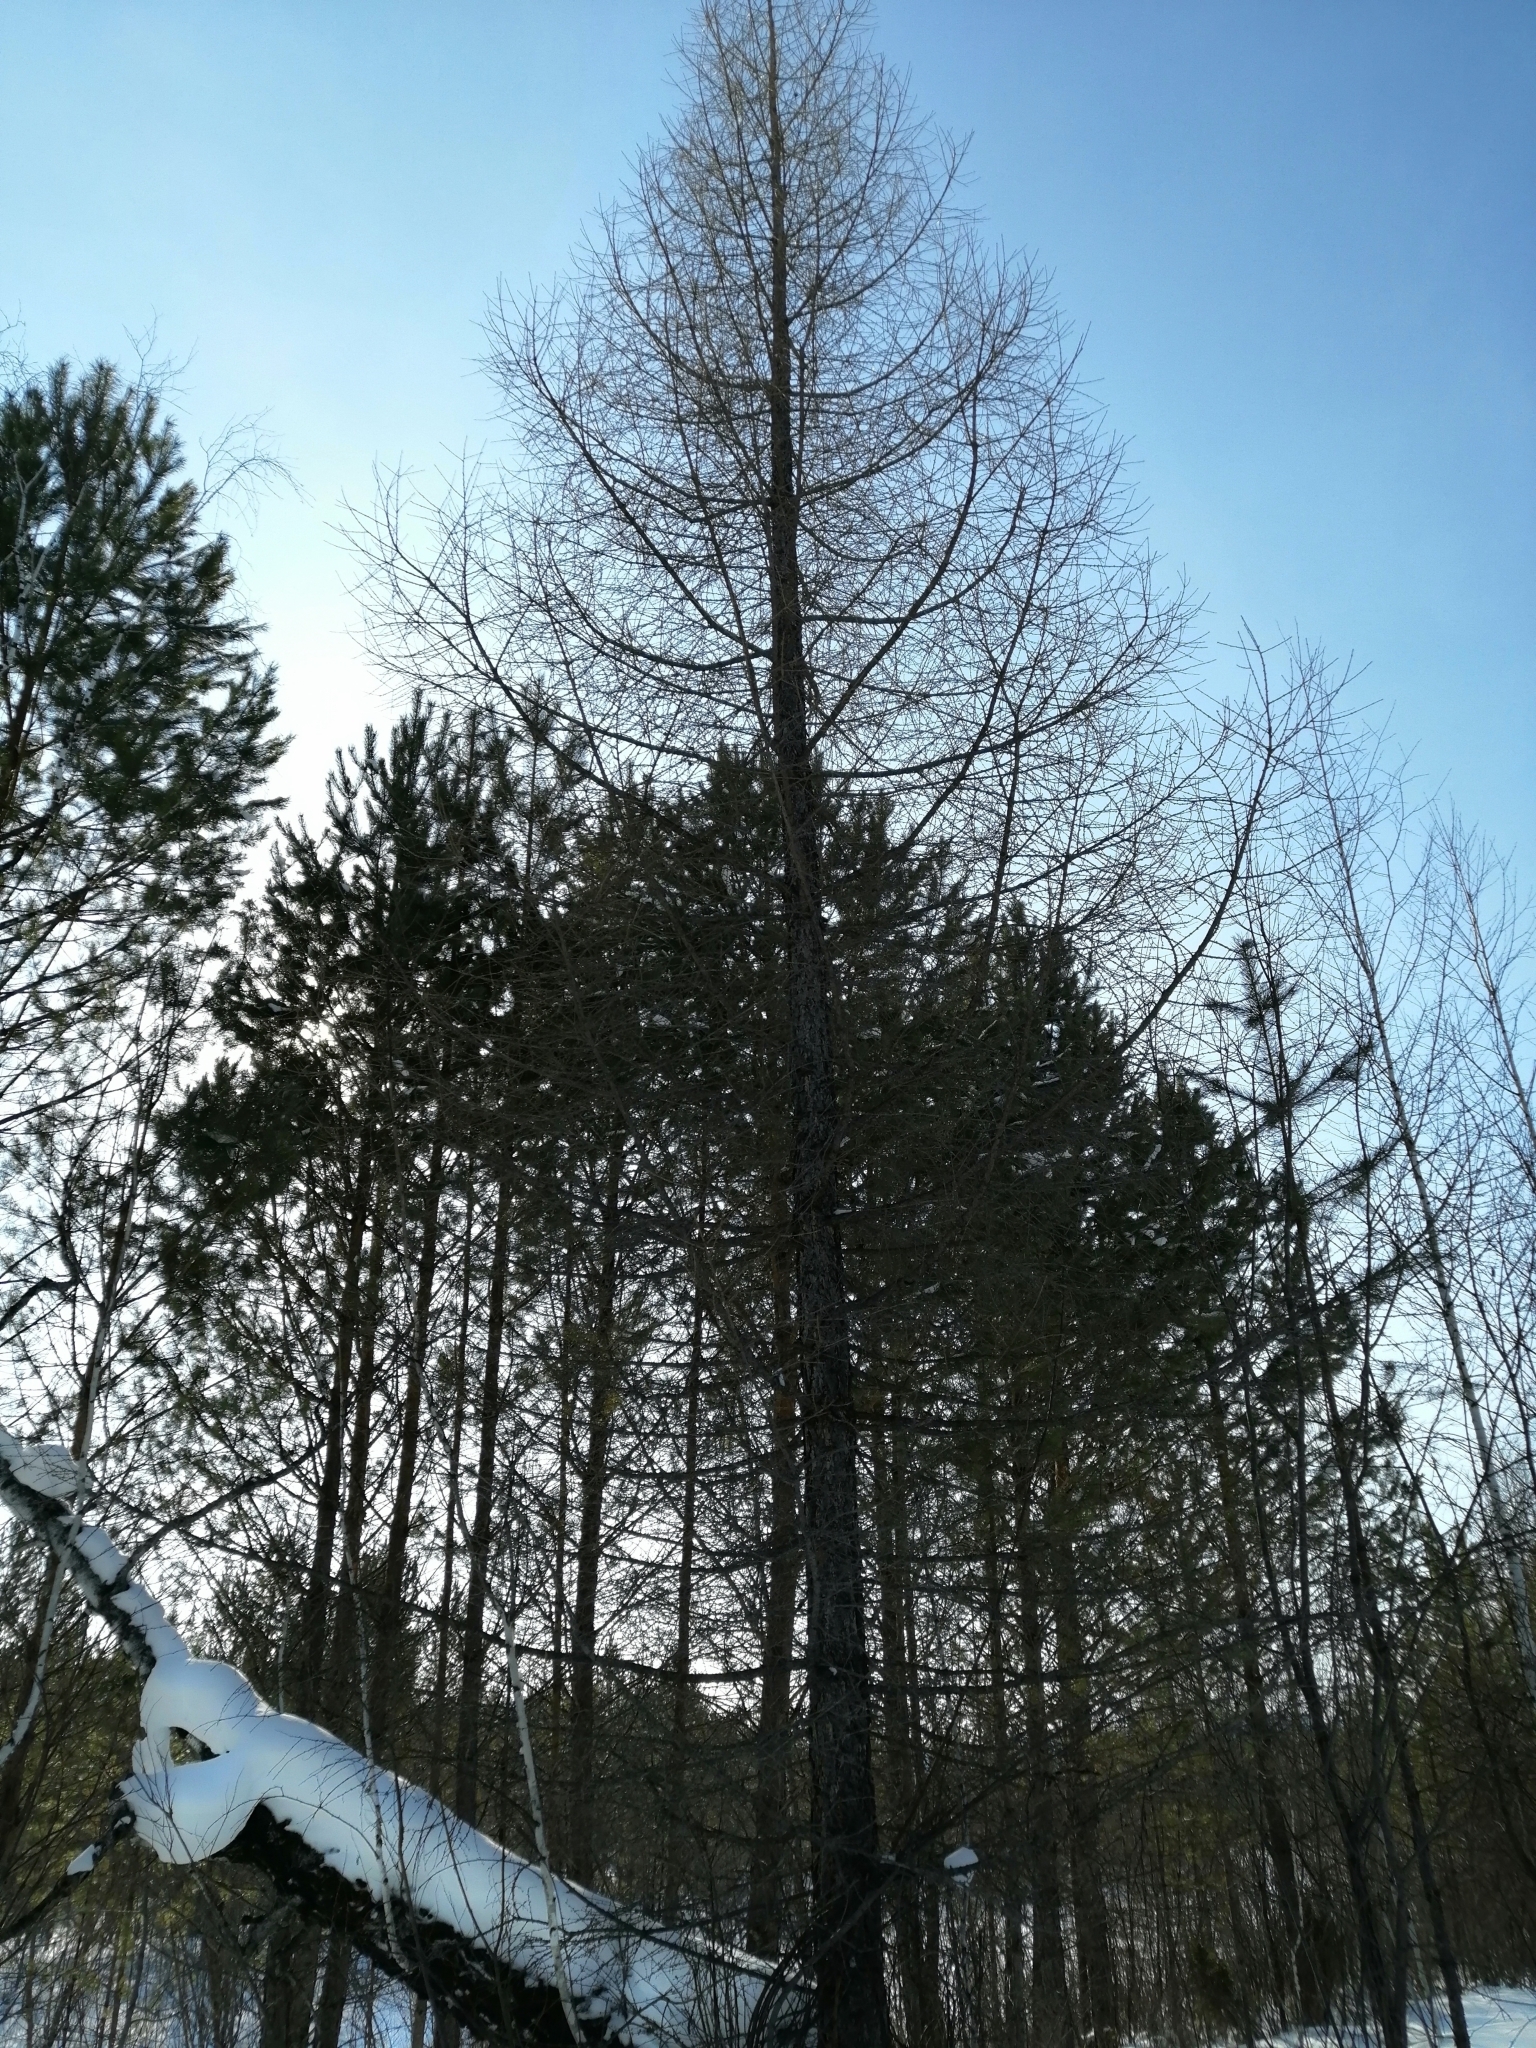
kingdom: Plantae
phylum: Tracheophyta
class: Pinopsida
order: Pinales
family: Pinaceae
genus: Larix
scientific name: Larix sibirica
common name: Siberian larch
